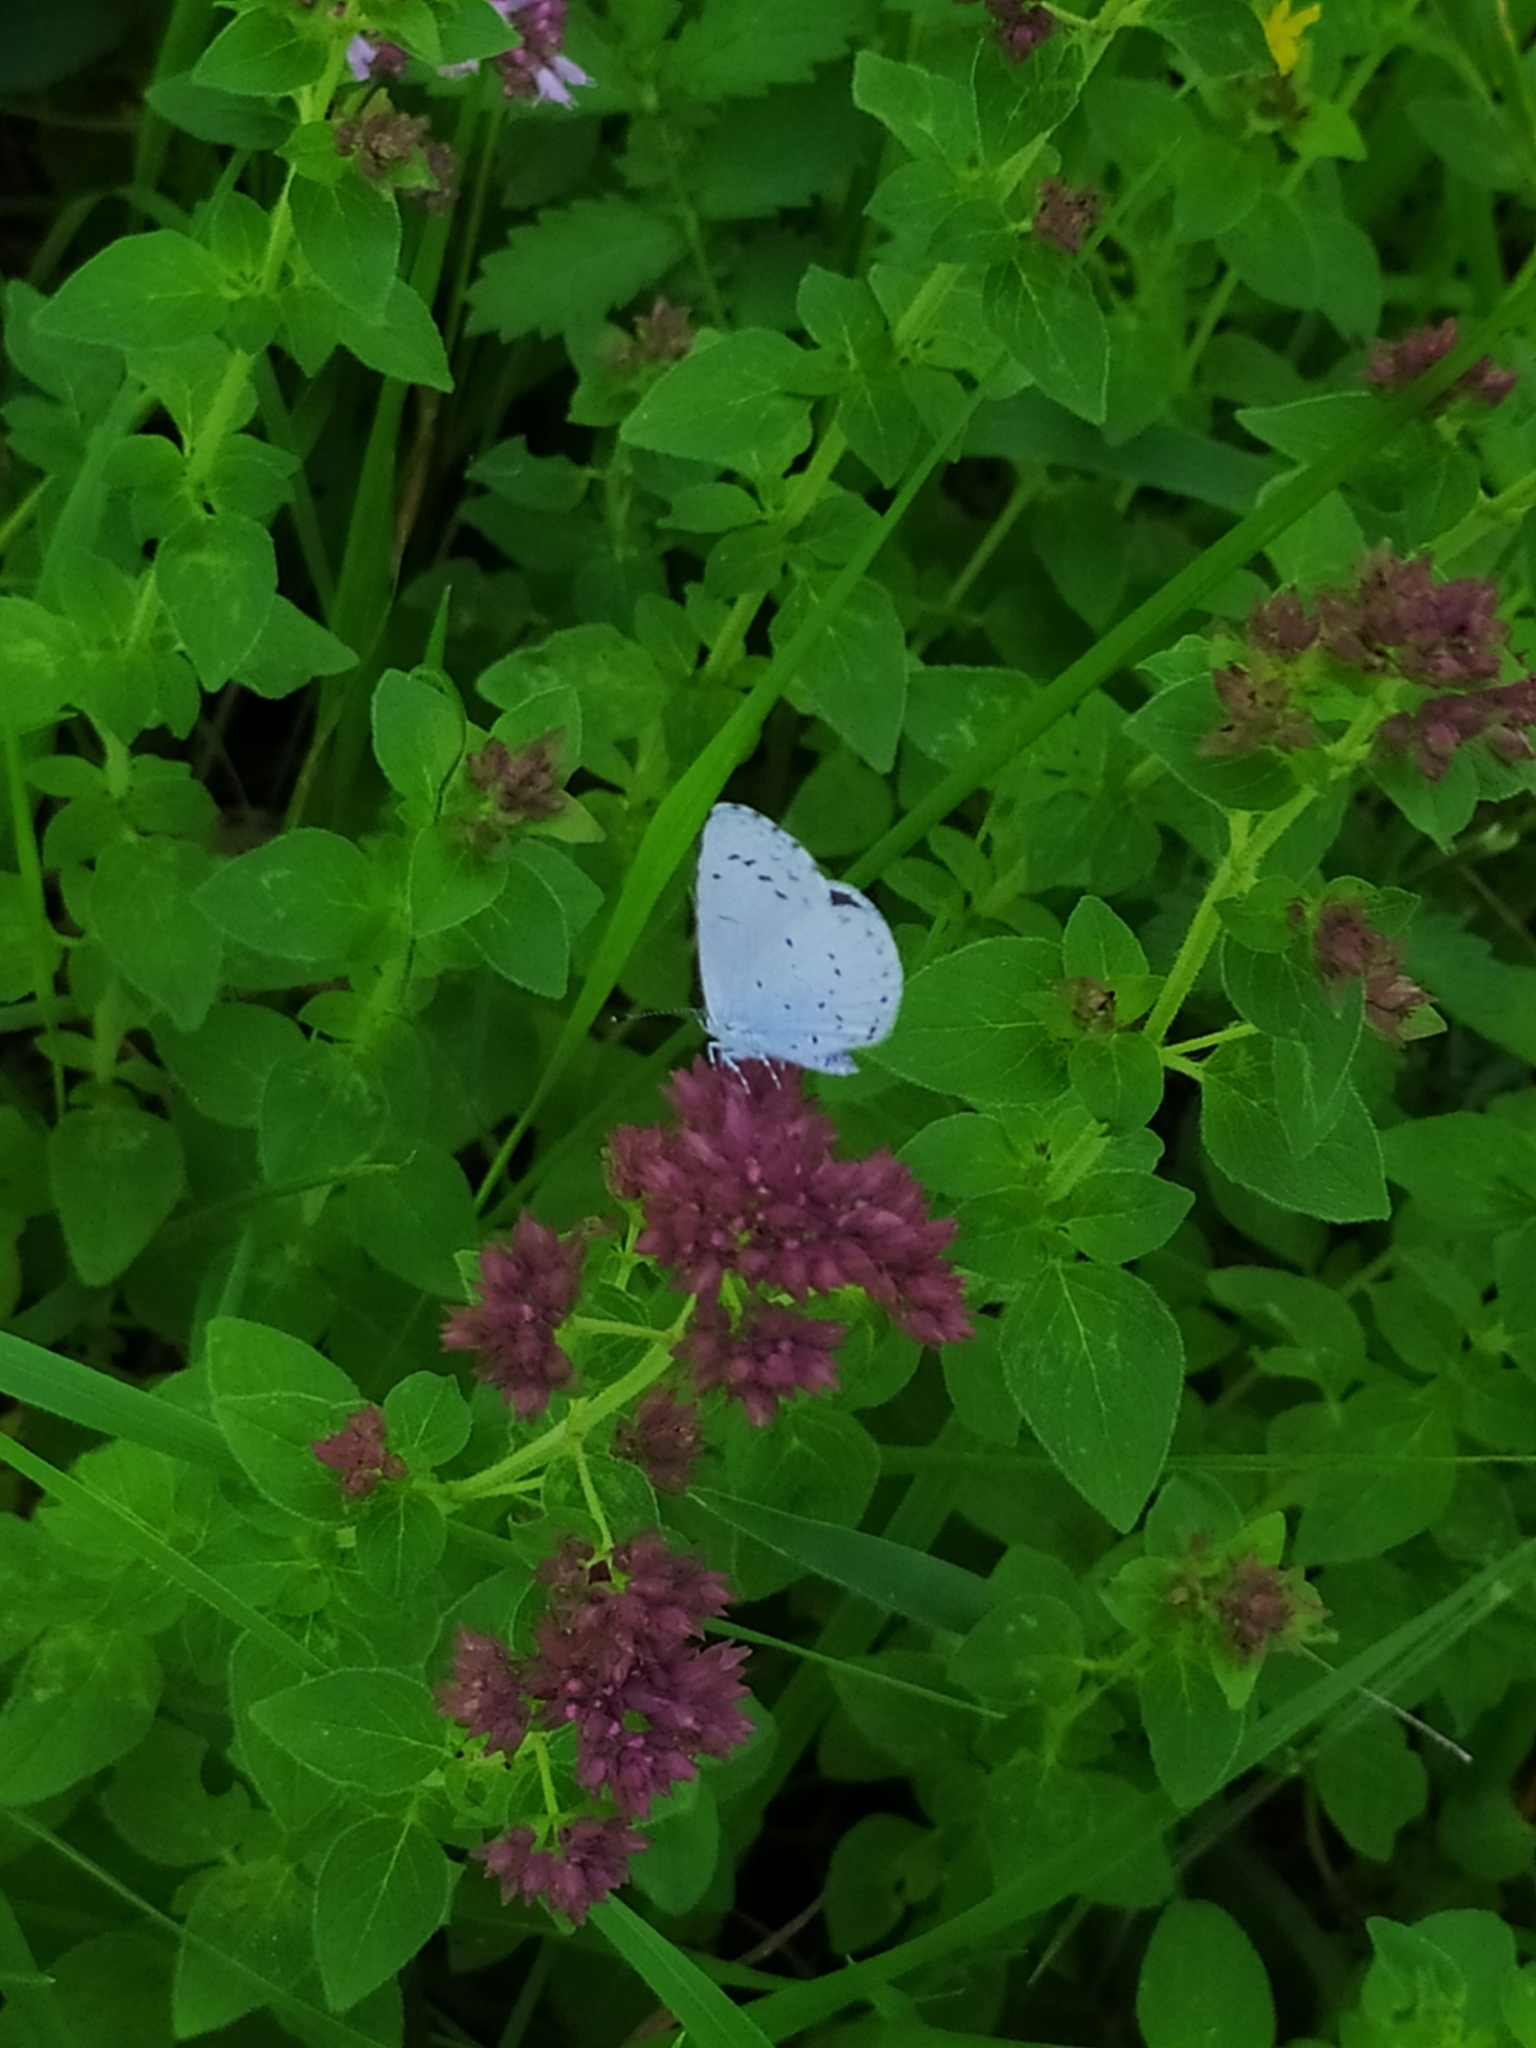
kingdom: Animalia
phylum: Arthropoda
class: Insecta
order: Lepidoptera
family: Lycaenidae
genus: Celastrina
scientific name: Celastrina argiolus
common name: Holly blue
